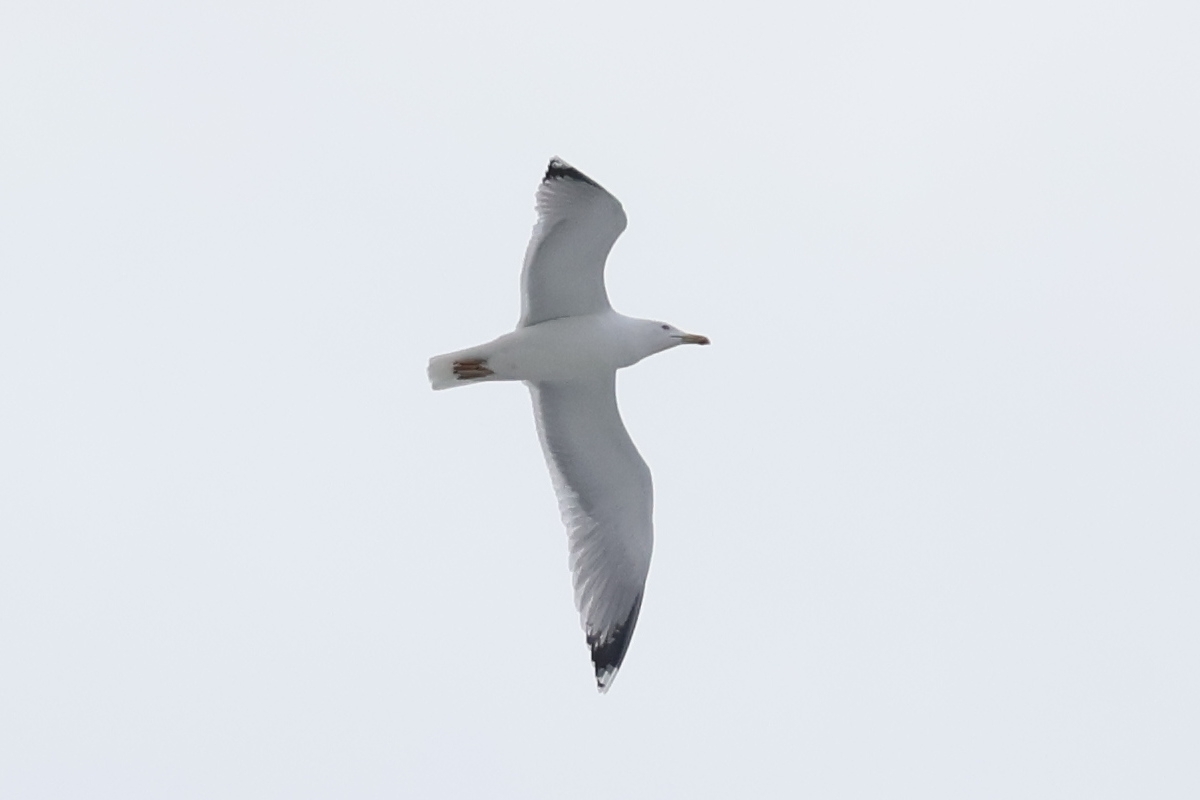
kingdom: Animalia
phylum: Chordata
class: Aves
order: Charadriiformes
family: Laridae
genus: Larus
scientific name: Larus argentatus
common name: Herring gull
